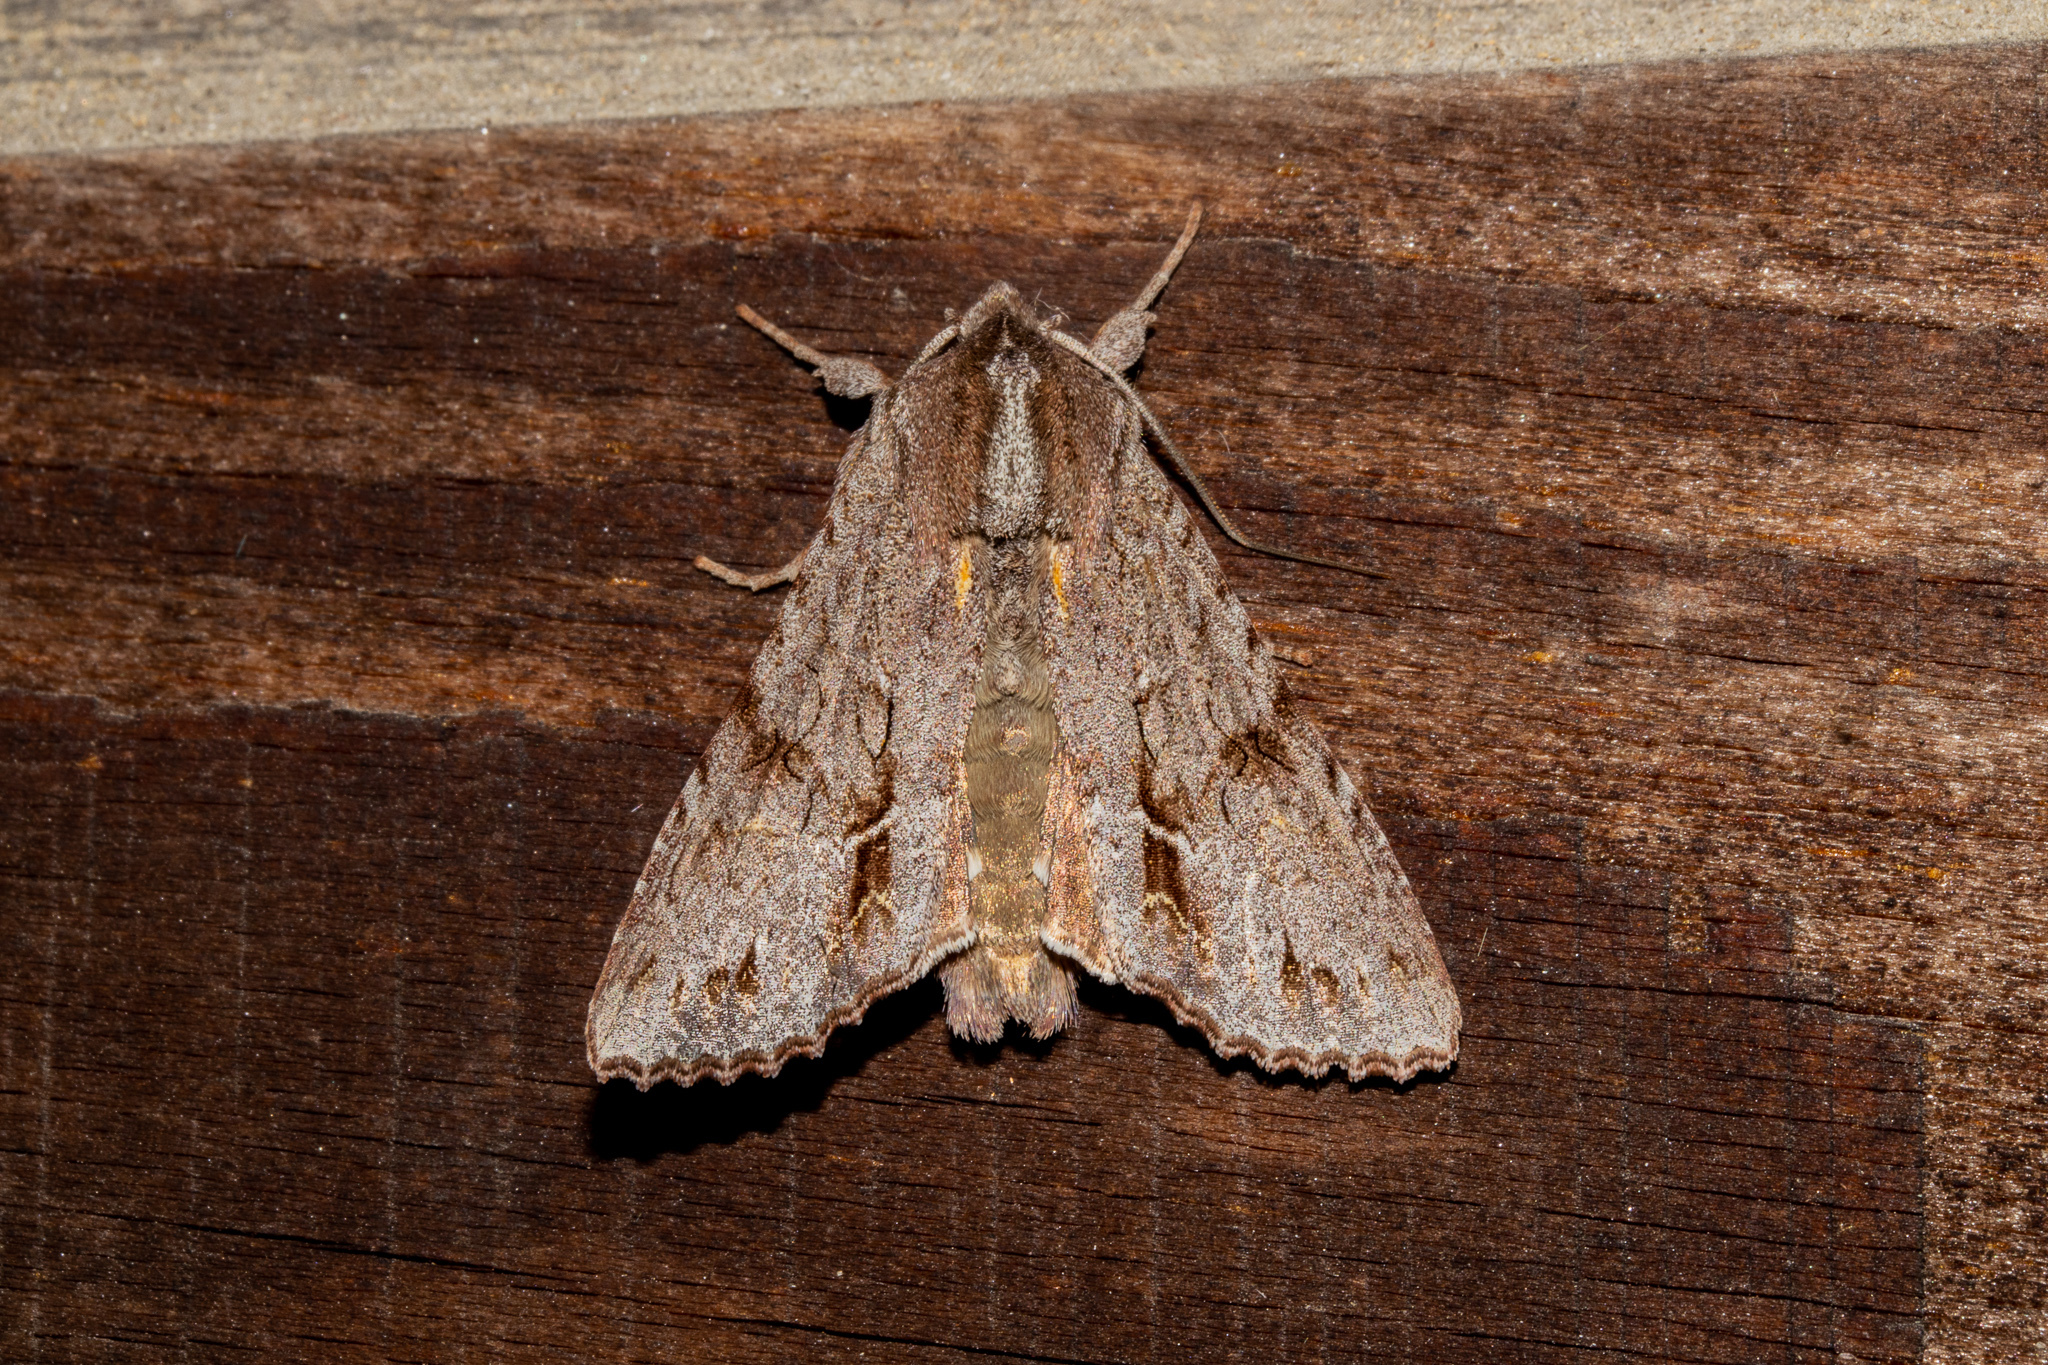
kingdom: Animalia
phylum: Arthropoda
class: Insecta
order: Lepidoptera
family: Noctuidae
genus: Ichneutica
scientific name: Ichneutica
